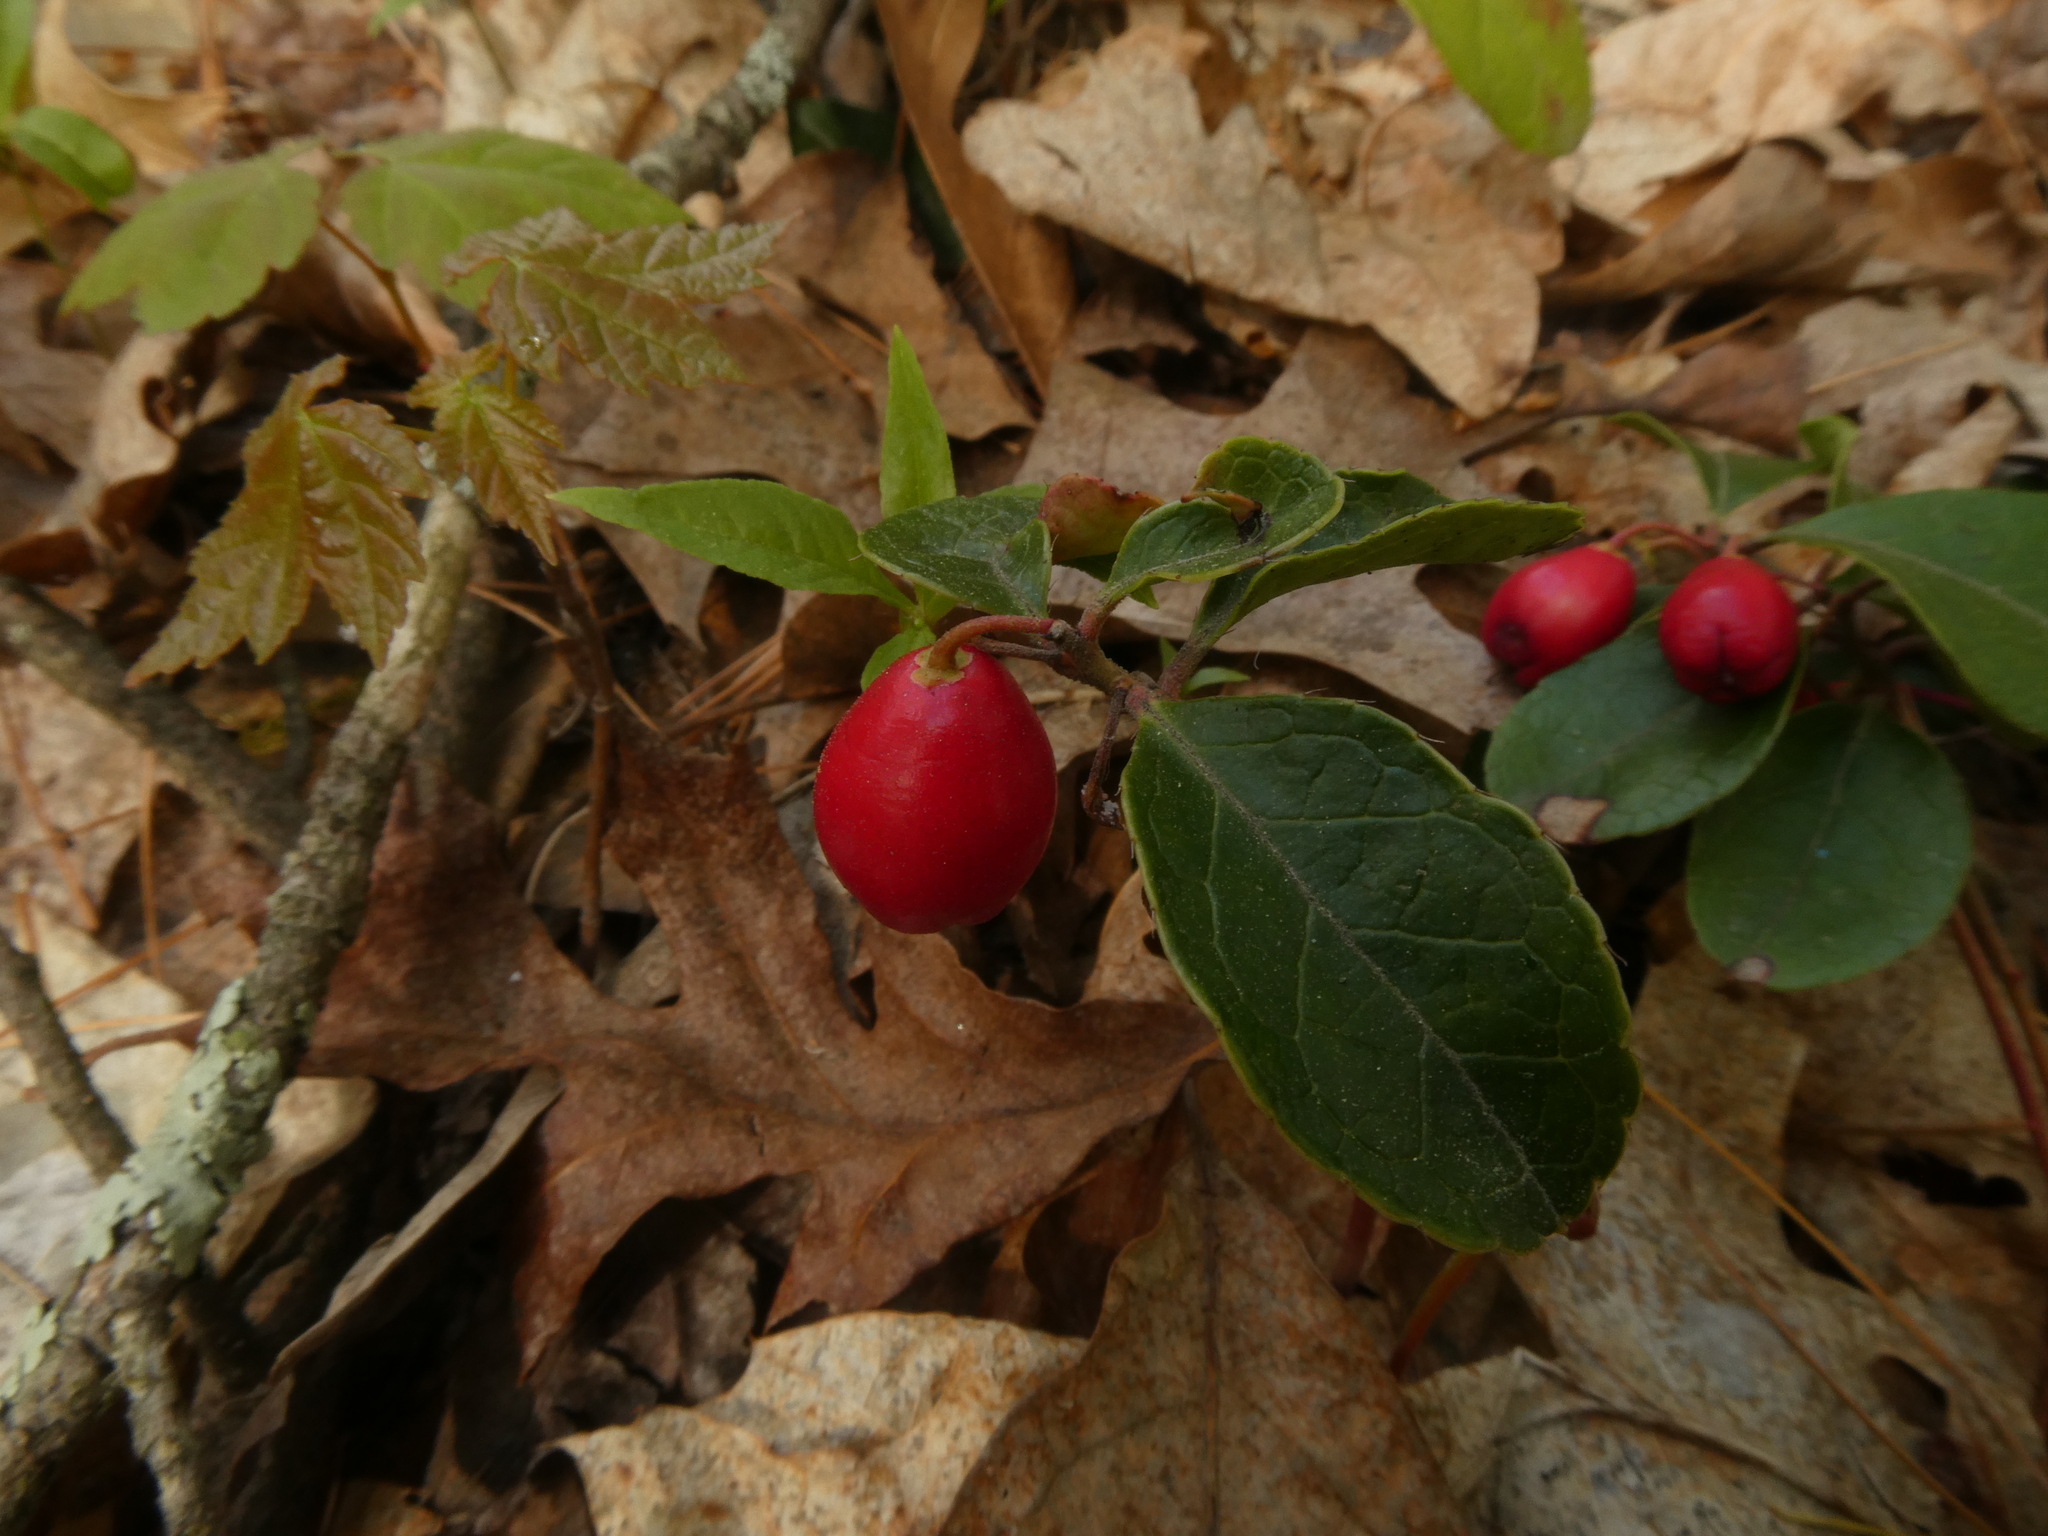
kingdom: Plantae
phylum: Tracheophyta
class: Magnoliopsida
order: Ericales
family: Ericaceae
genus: Gaultheria
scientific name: Gaultheria procumbens
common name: Checkerberry
